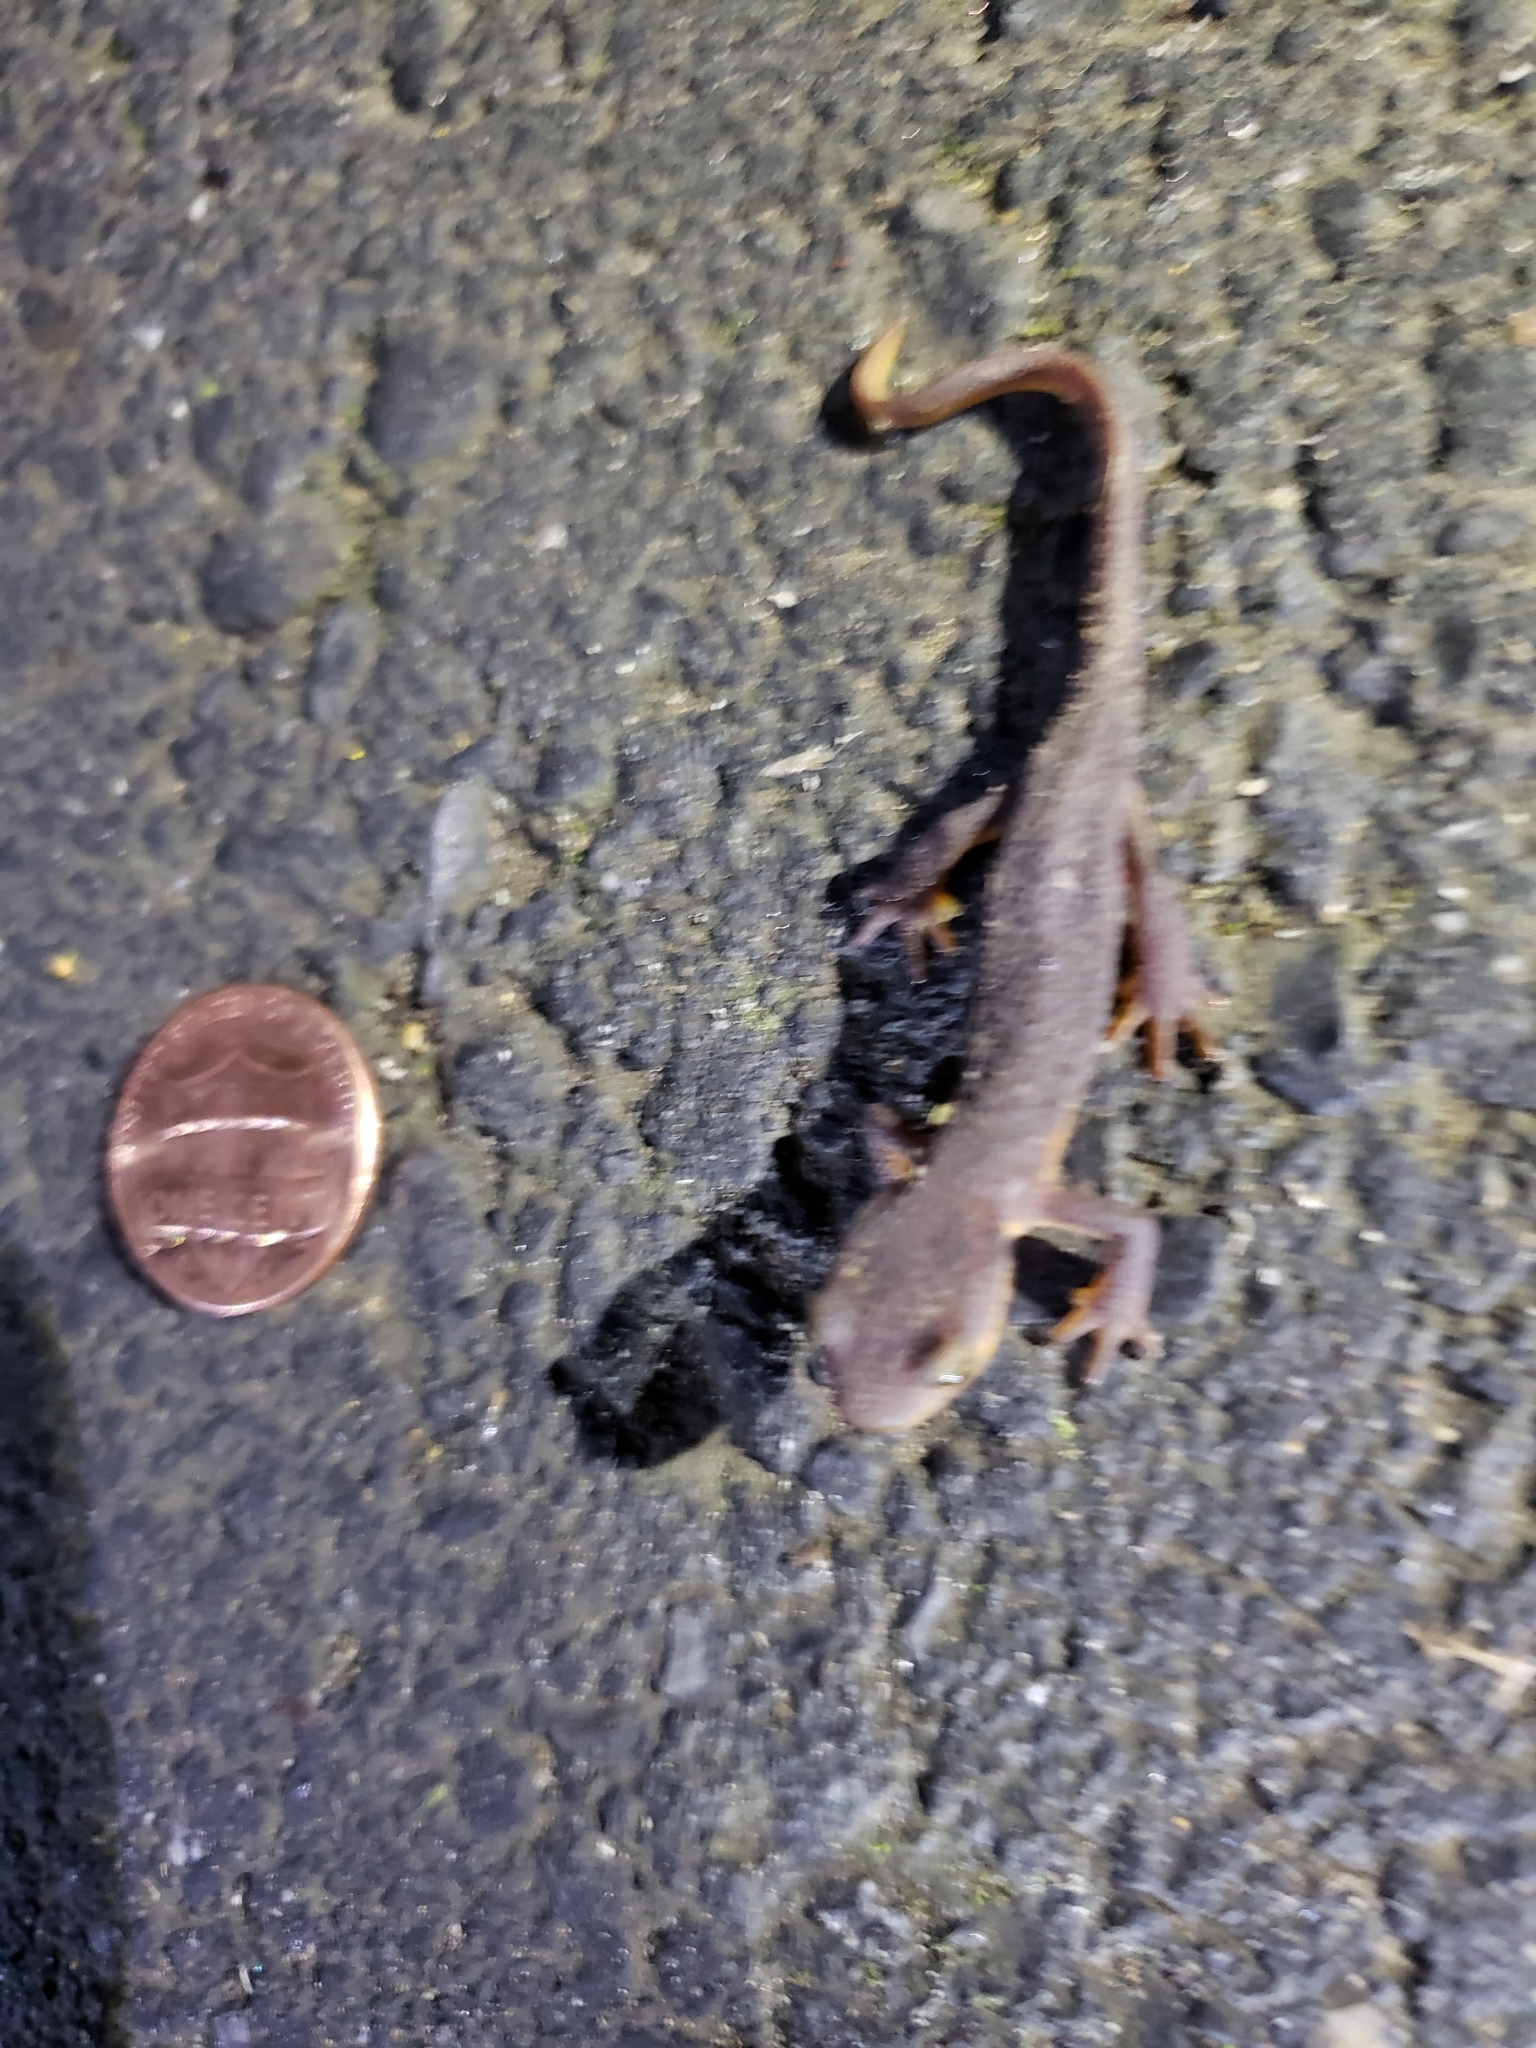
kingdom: Animalia
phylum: Chordata
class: Amphibia
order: Caudata
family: Salamandridae
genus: Taricha
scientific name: Taricha torosa
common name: California newt
